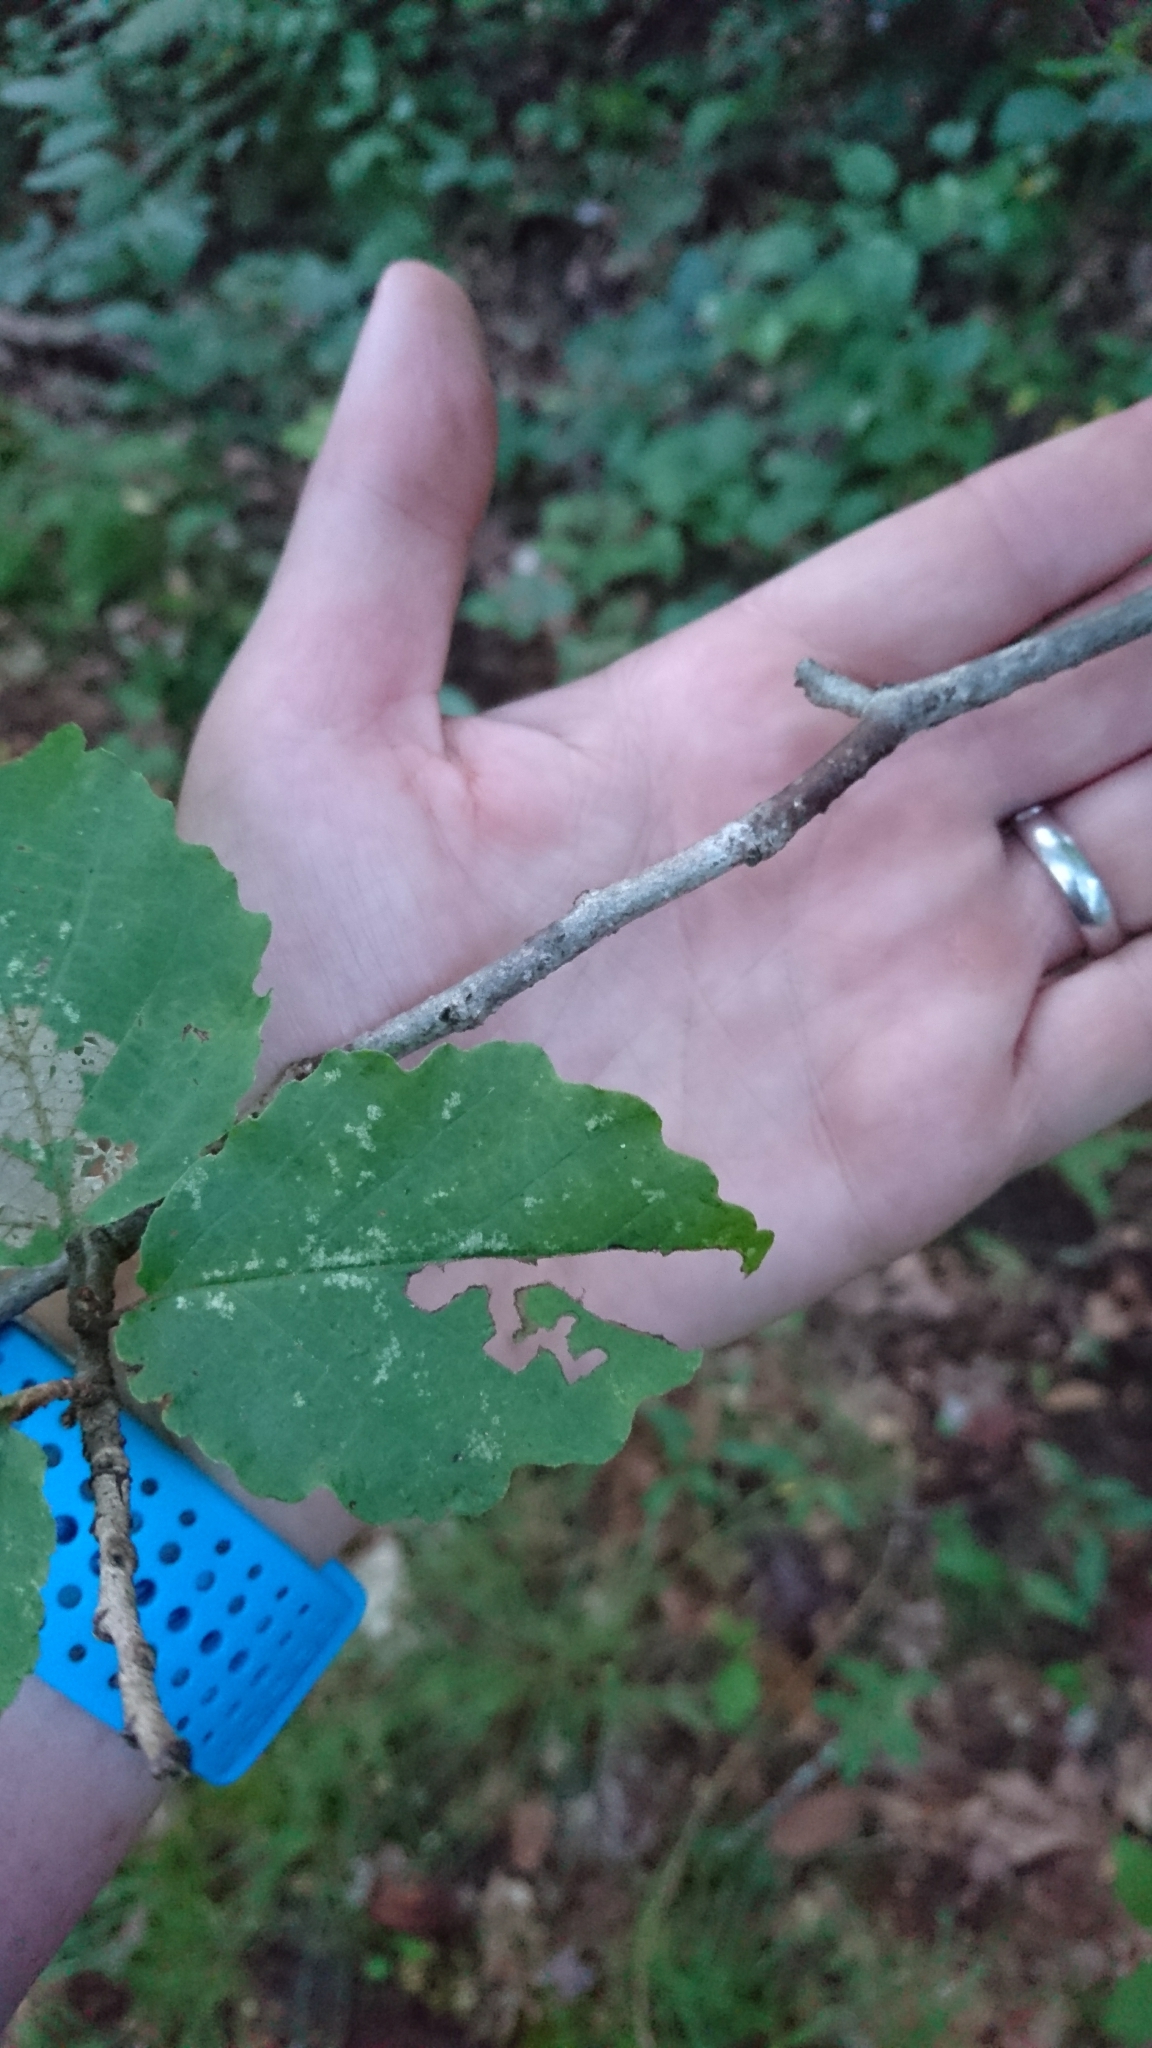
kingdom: Plantae
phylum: Tracheophyta
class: Magnoliopsida
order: Saxifragales
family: Hamamelidaceae
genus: Hamamelis
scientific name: Hamamelis virginiana
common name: Witch-hazel
